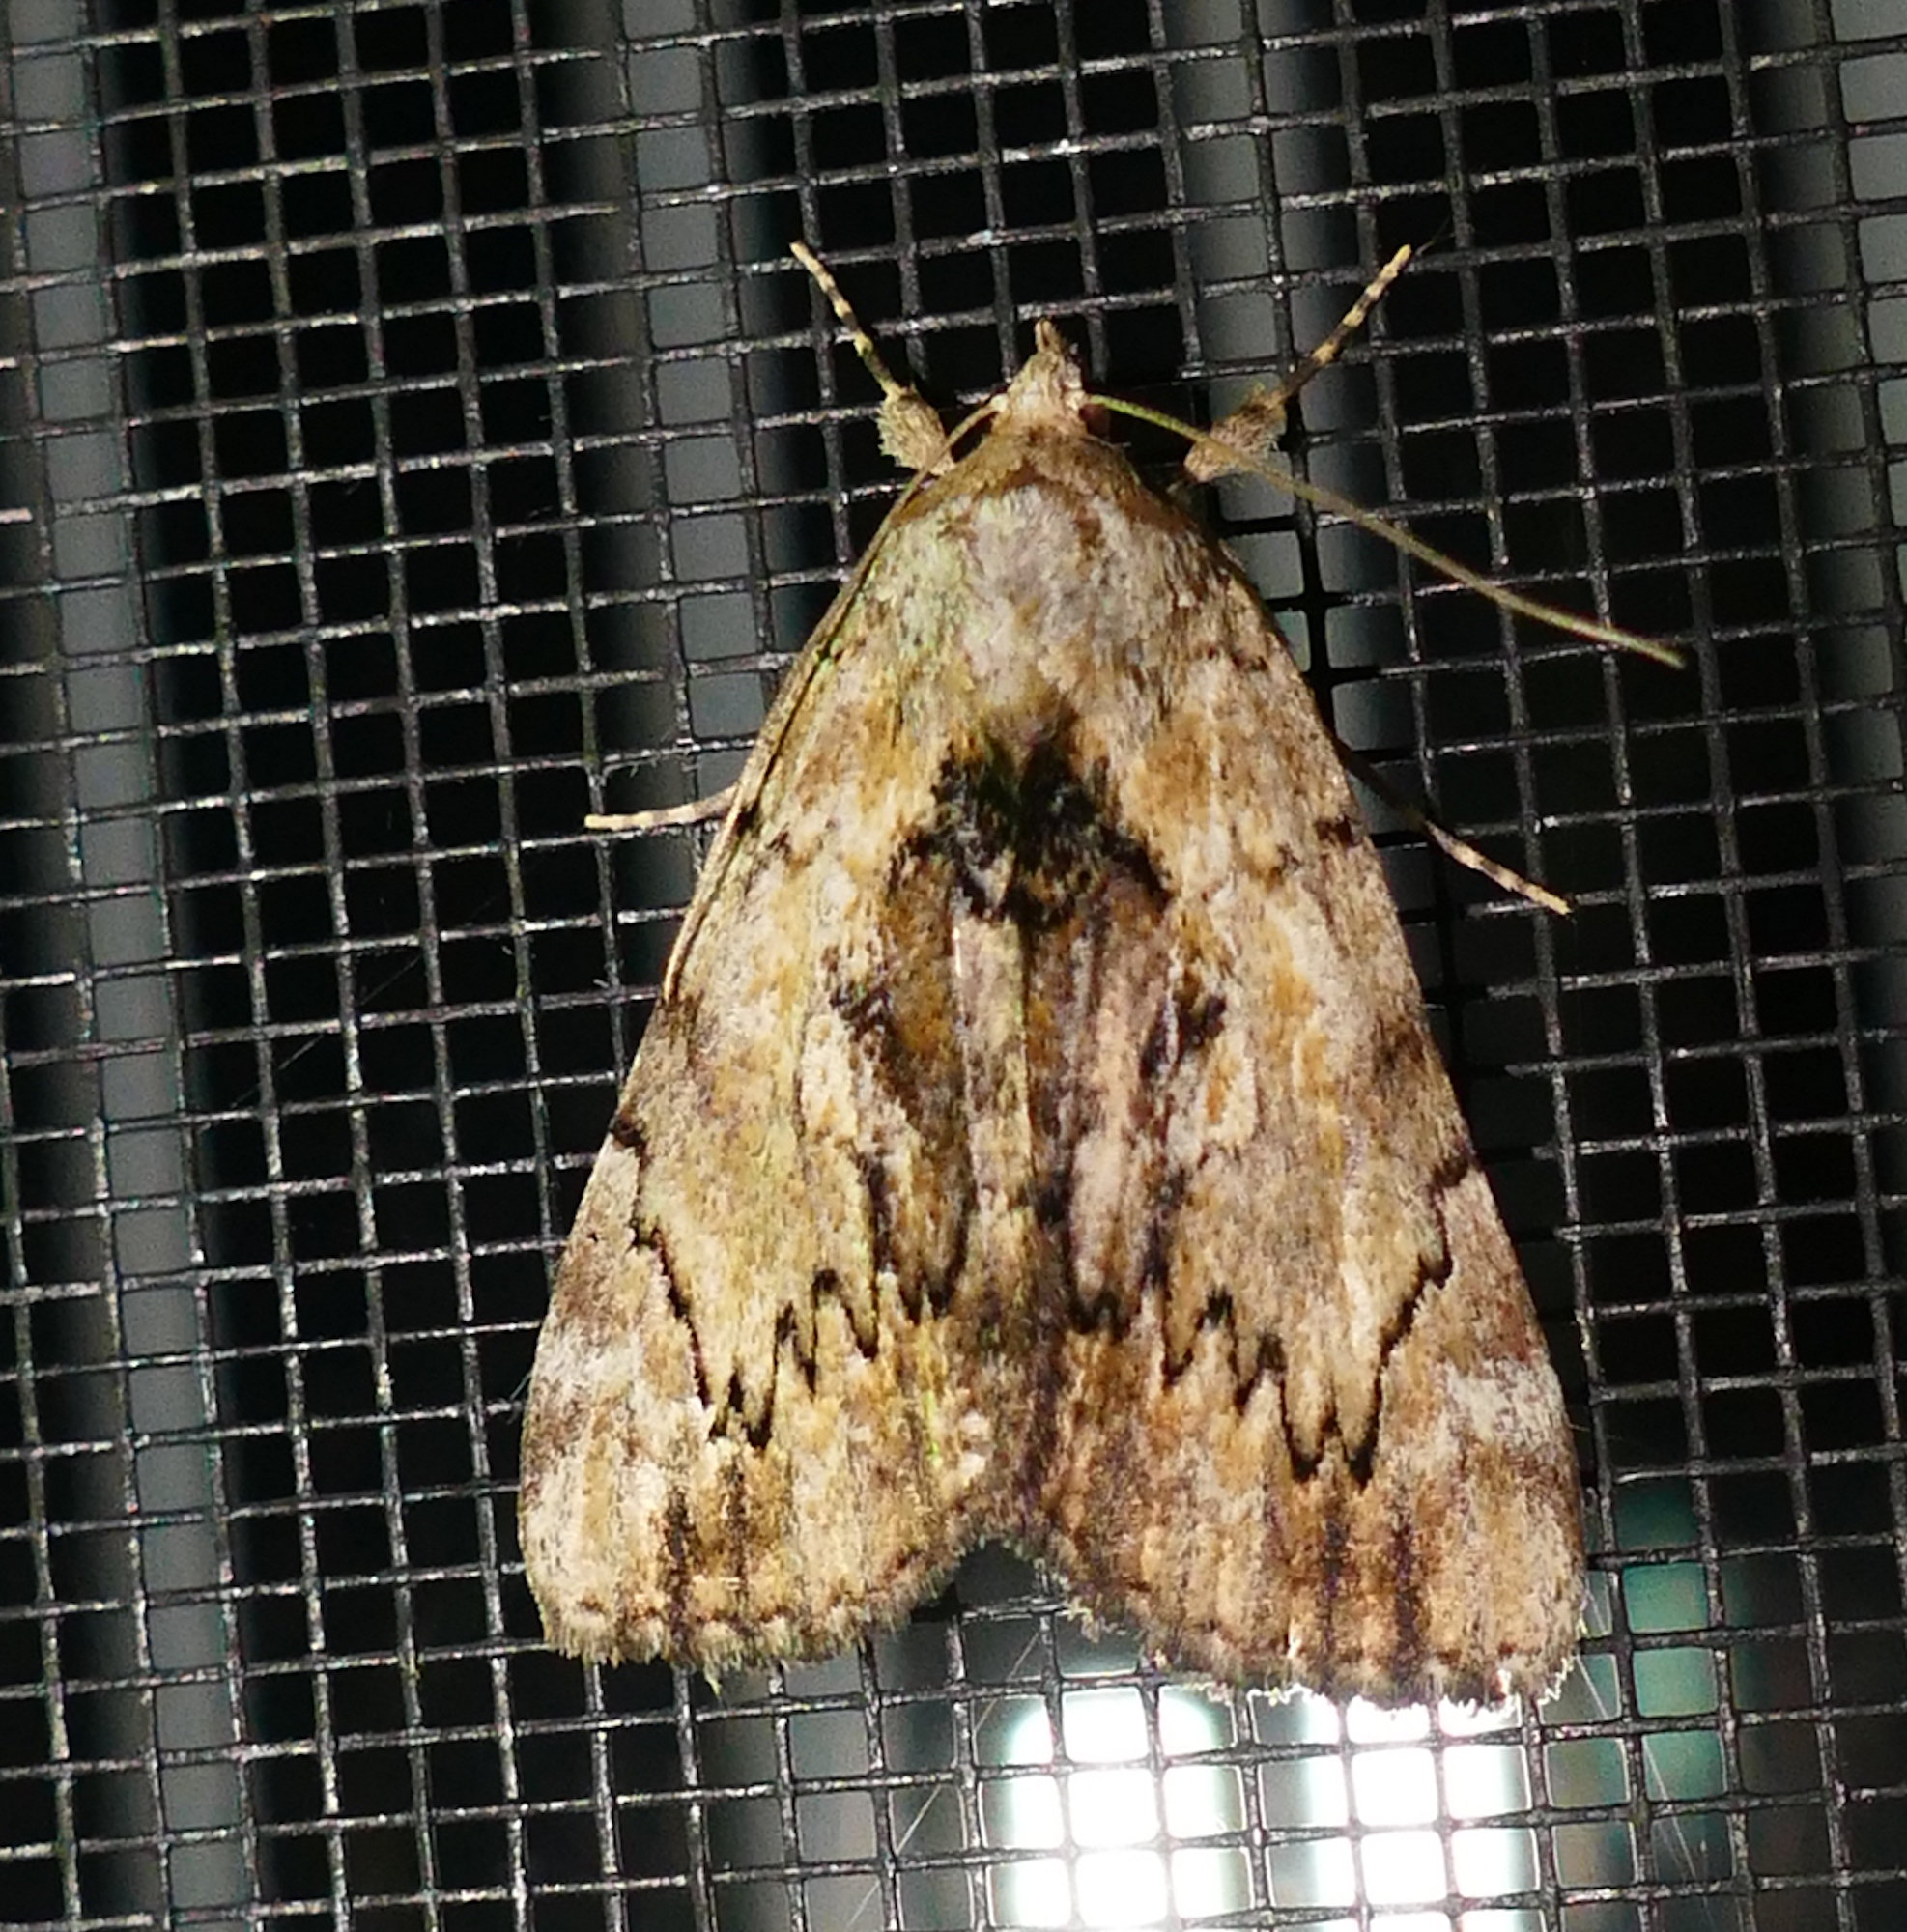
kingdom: Animalia
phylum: Arthropoda
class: Insecta
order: Lepidoptera
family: Erebidae
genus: Catocala
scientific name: Catocala minuta
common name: Little underwing
